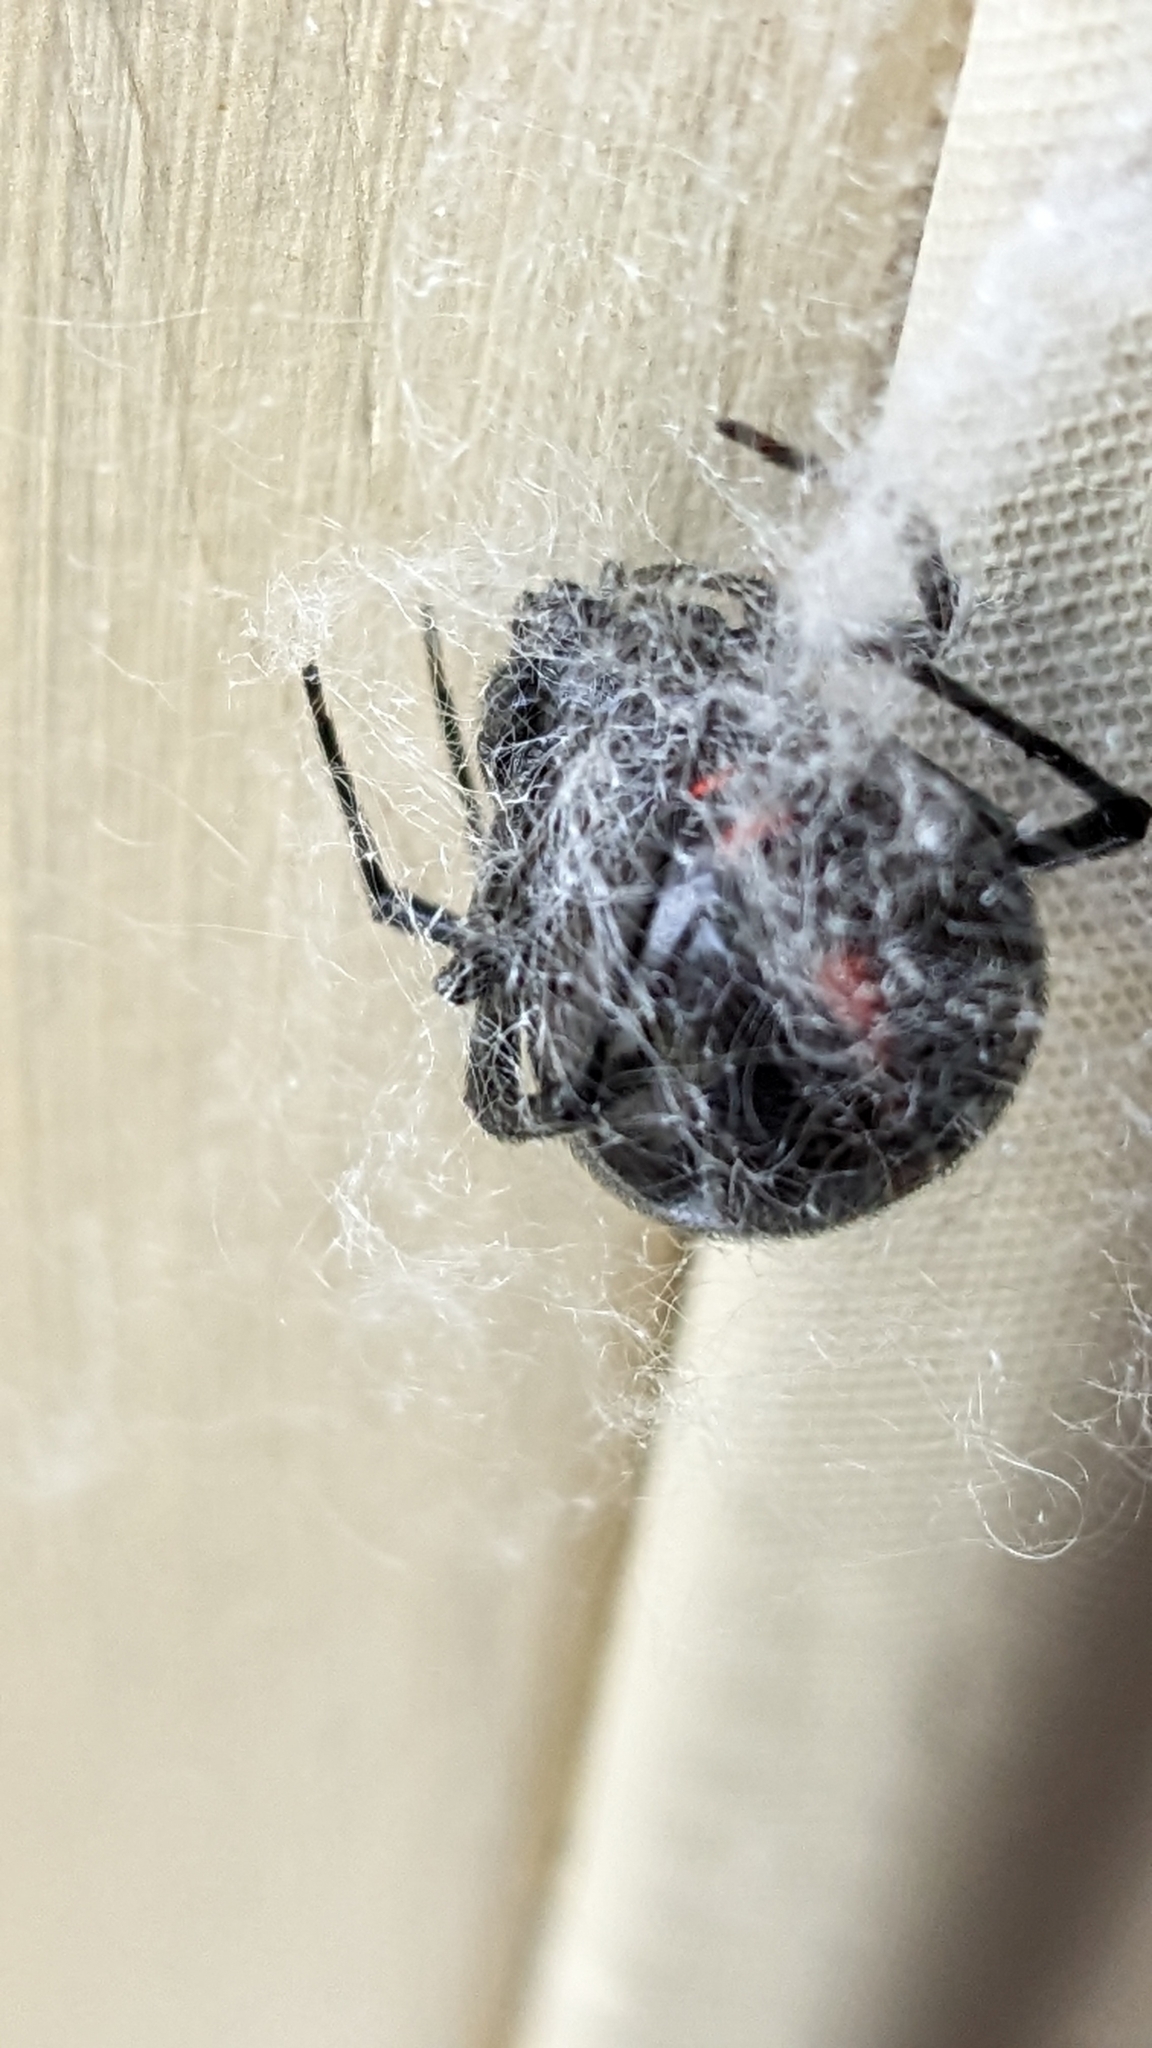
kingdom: Animalia
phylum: Arthropoda
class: Arachnida
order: Araneae
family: Theridiidae
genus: Latrodectus
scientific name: Latrodectus variolus
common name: Northern black widow
